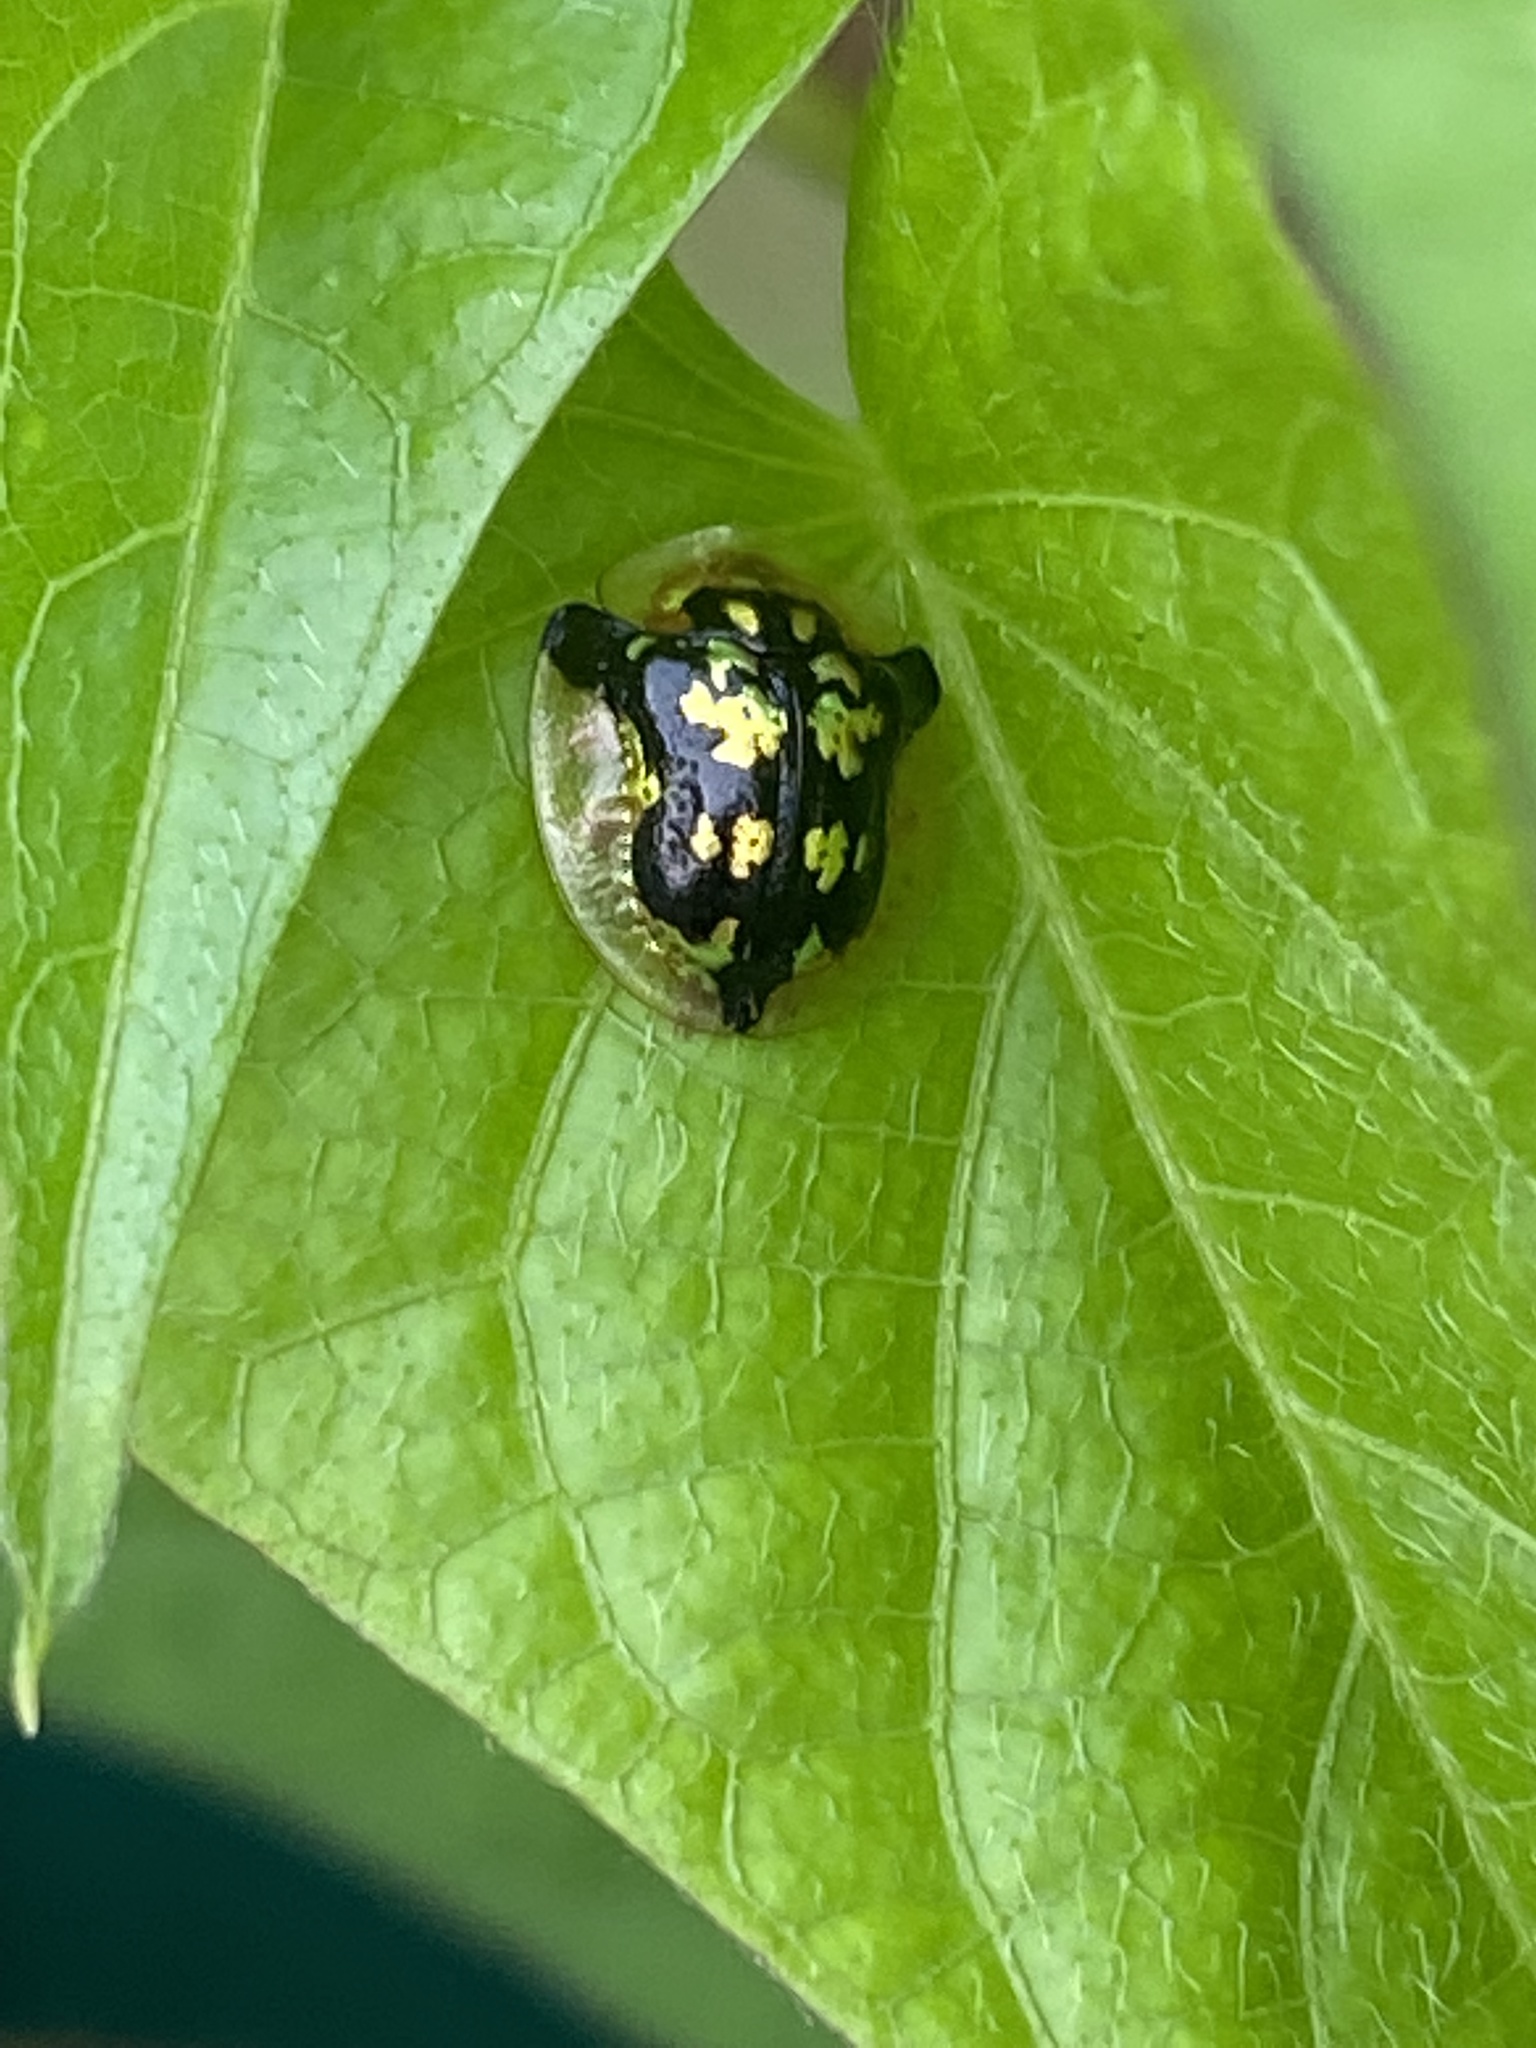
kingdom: Animalia
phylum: Arthropoda
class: Insecta
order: Coleoptera
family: Chrysomelidae
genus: Deloyala
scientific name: Deloyala guttata
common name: Mottled tortoise beetle
